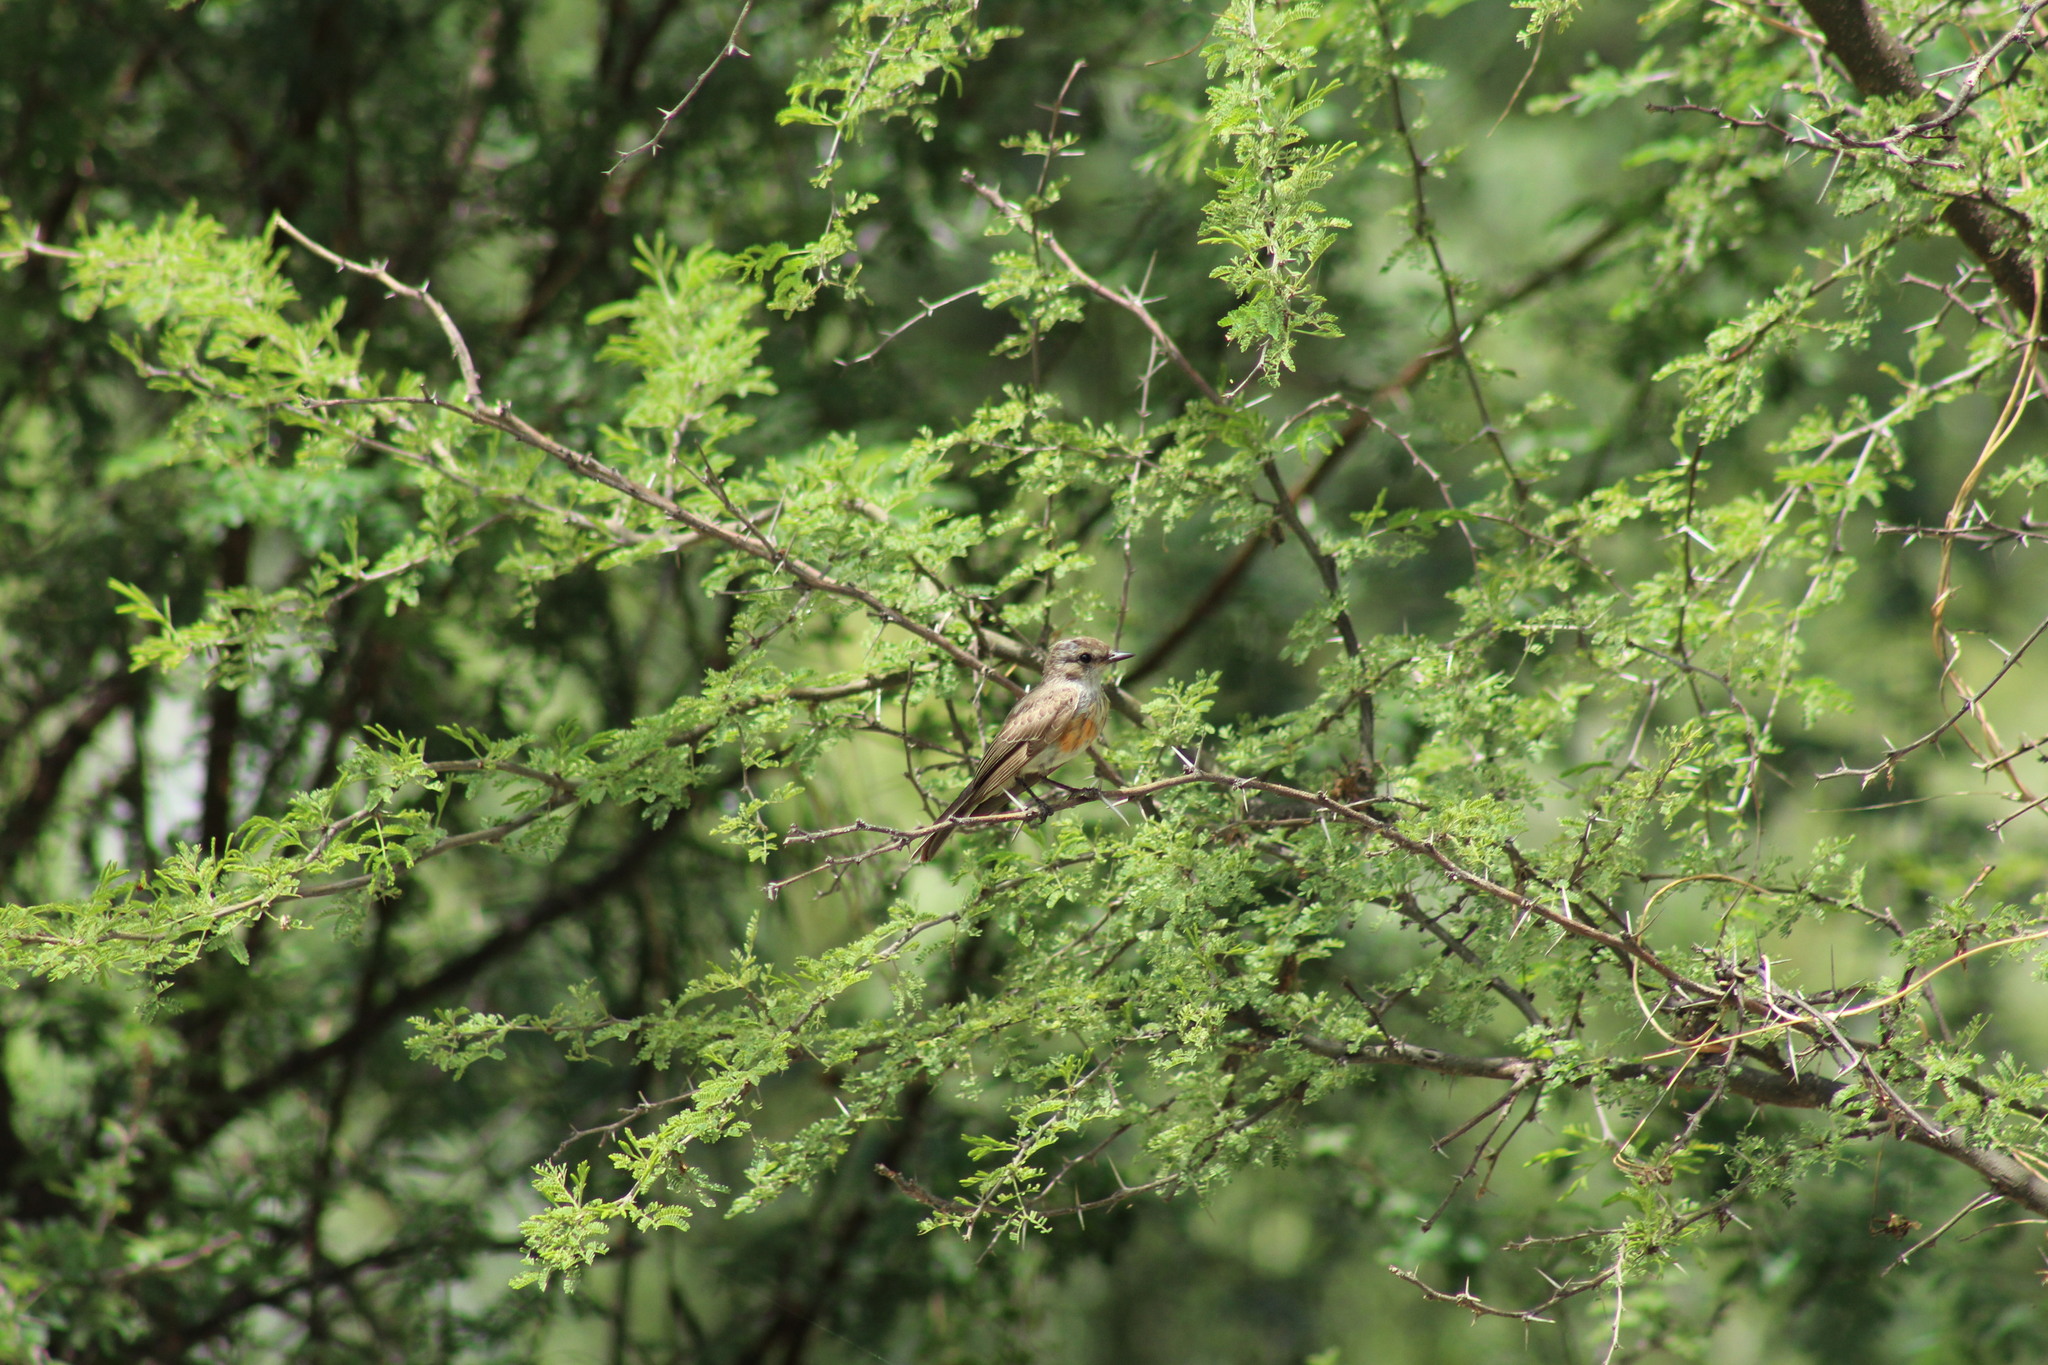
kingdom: Animalia
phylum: Chordata
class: Aves
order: Passeriformes
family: Tyrannidae
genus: Pyrocephalus
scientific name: Pyrocephalus rubinus
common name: Vermilion flycatcher
